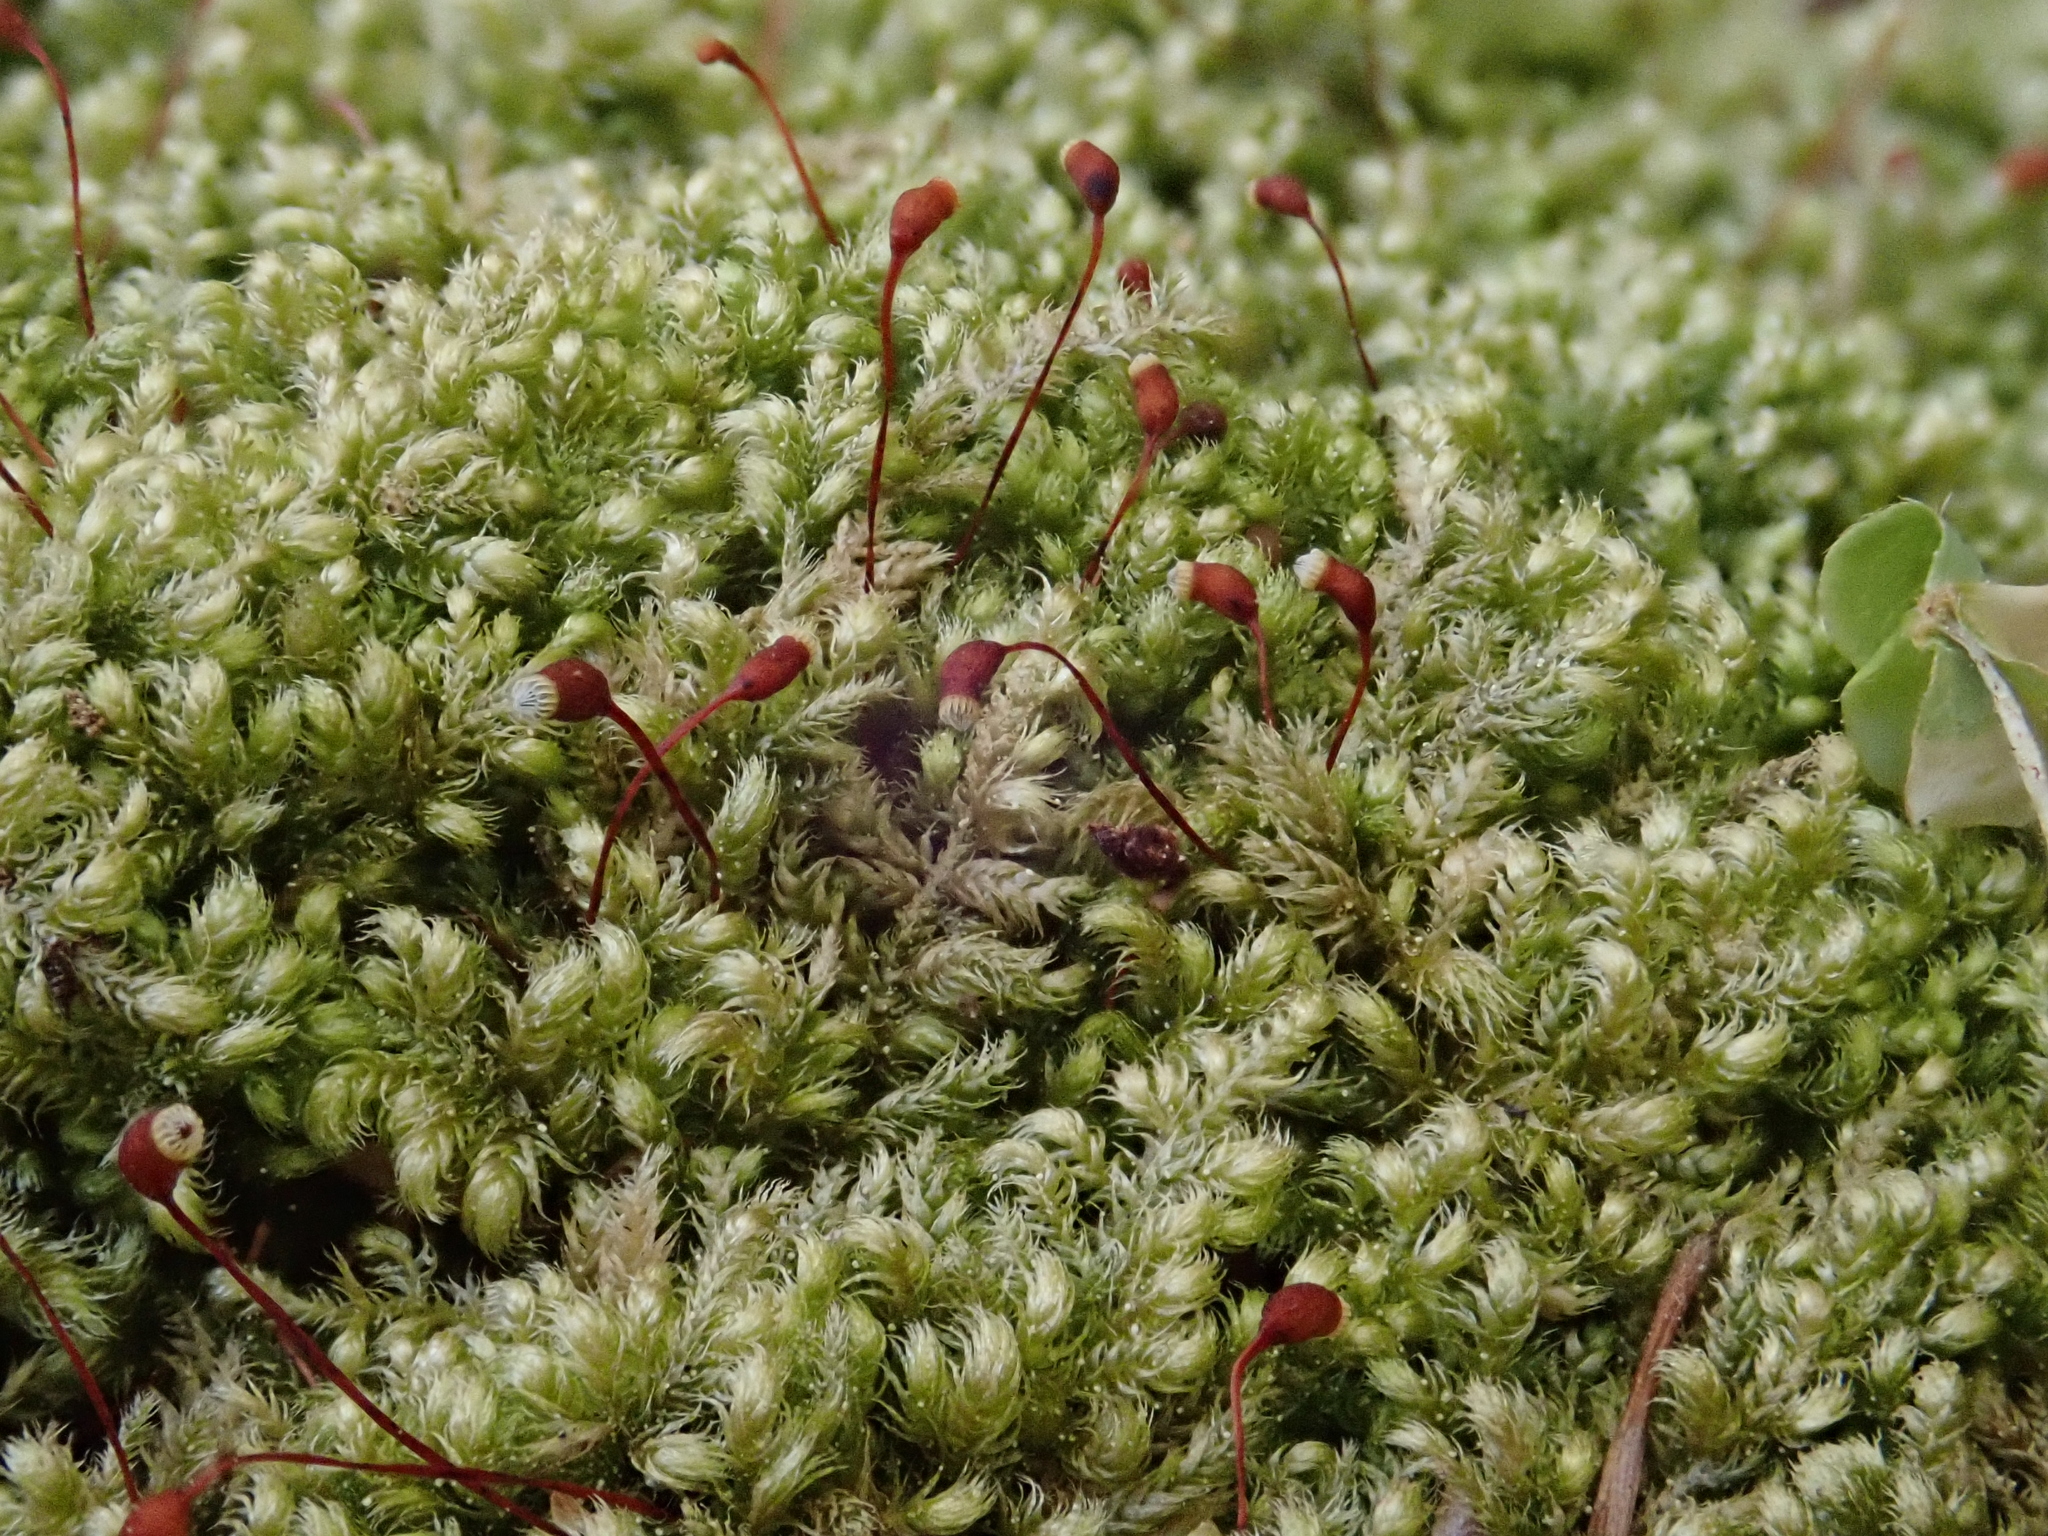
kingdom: Plantae
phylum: Bryophyta
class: Bryopsida
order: Hypnales
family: Brachytheciaceae
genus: Brachytheciastrum
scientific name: Brachytheciastrum velutinum
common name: Velvet feather-moss
